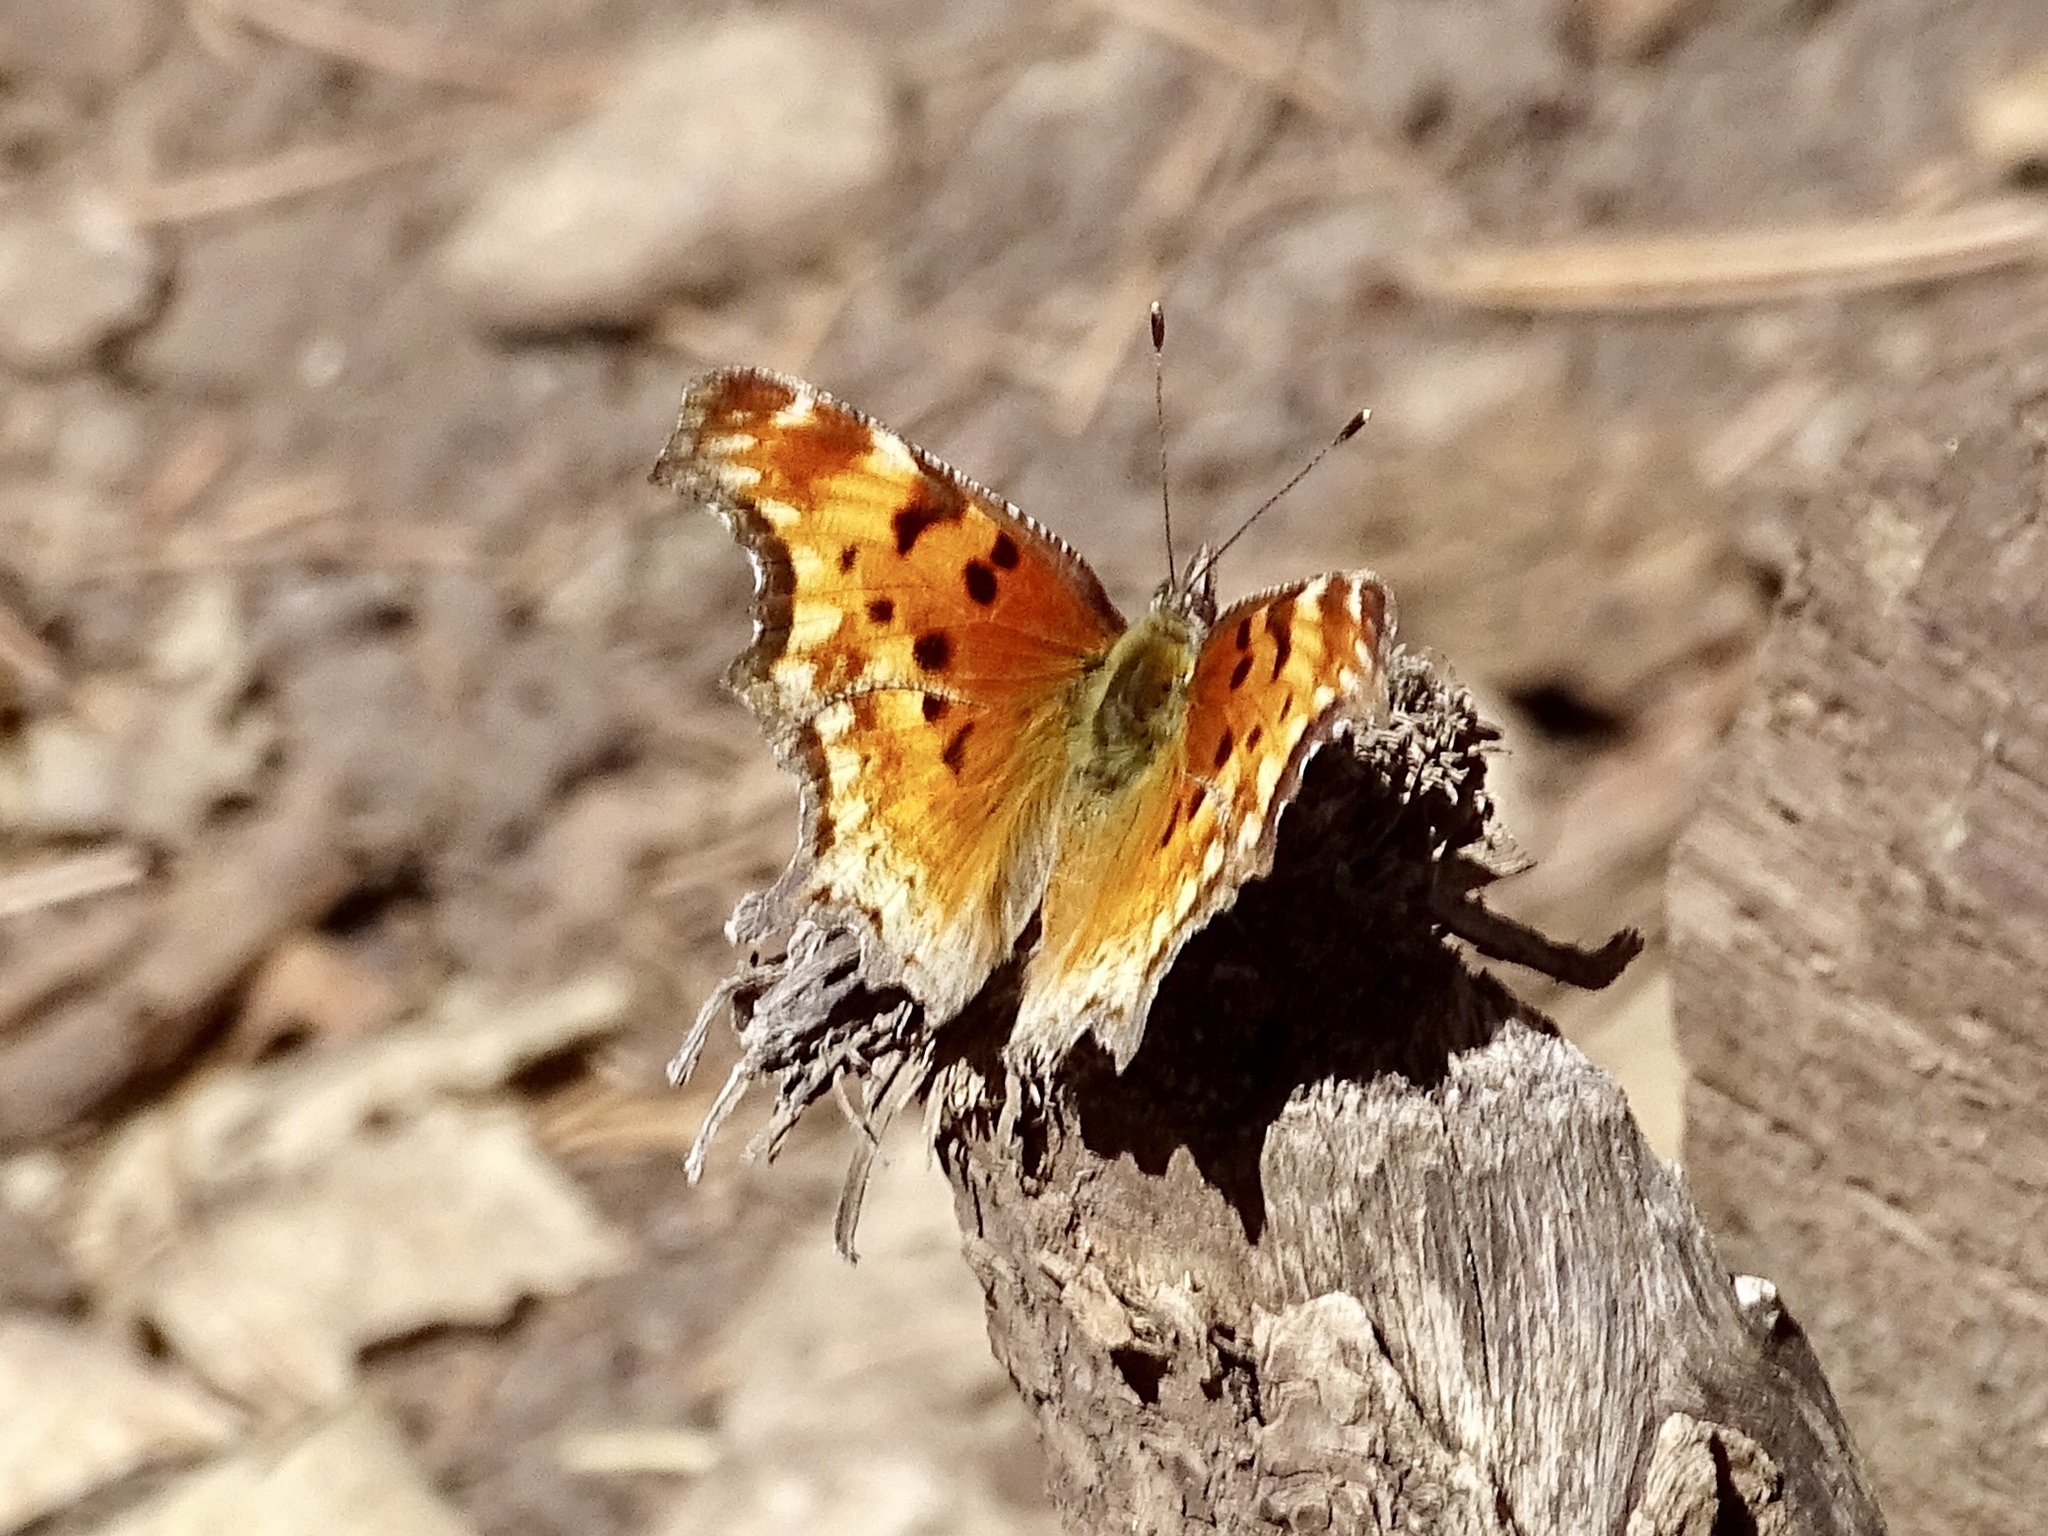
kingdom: Animalia
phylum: Arthropoda
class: Insecta
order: Lepidoptera
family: Nymphalidae
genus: Polygonia
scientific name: Polygonia gracilis
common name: Hoary comma
